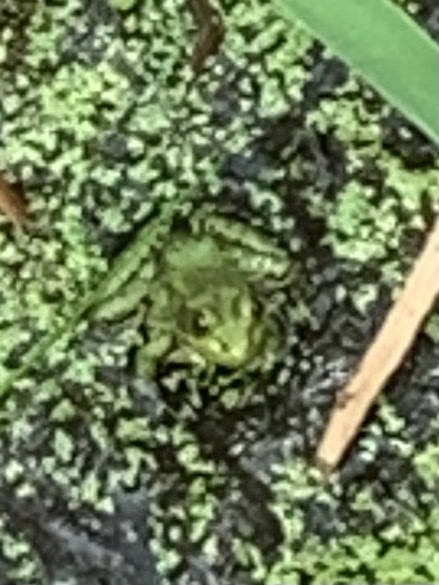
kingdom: Animalia
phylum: Chordata
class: Amphibia
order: Anura
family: Ranidae
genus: Lithobates
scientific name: Lithobates clamitans
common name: Green frog
